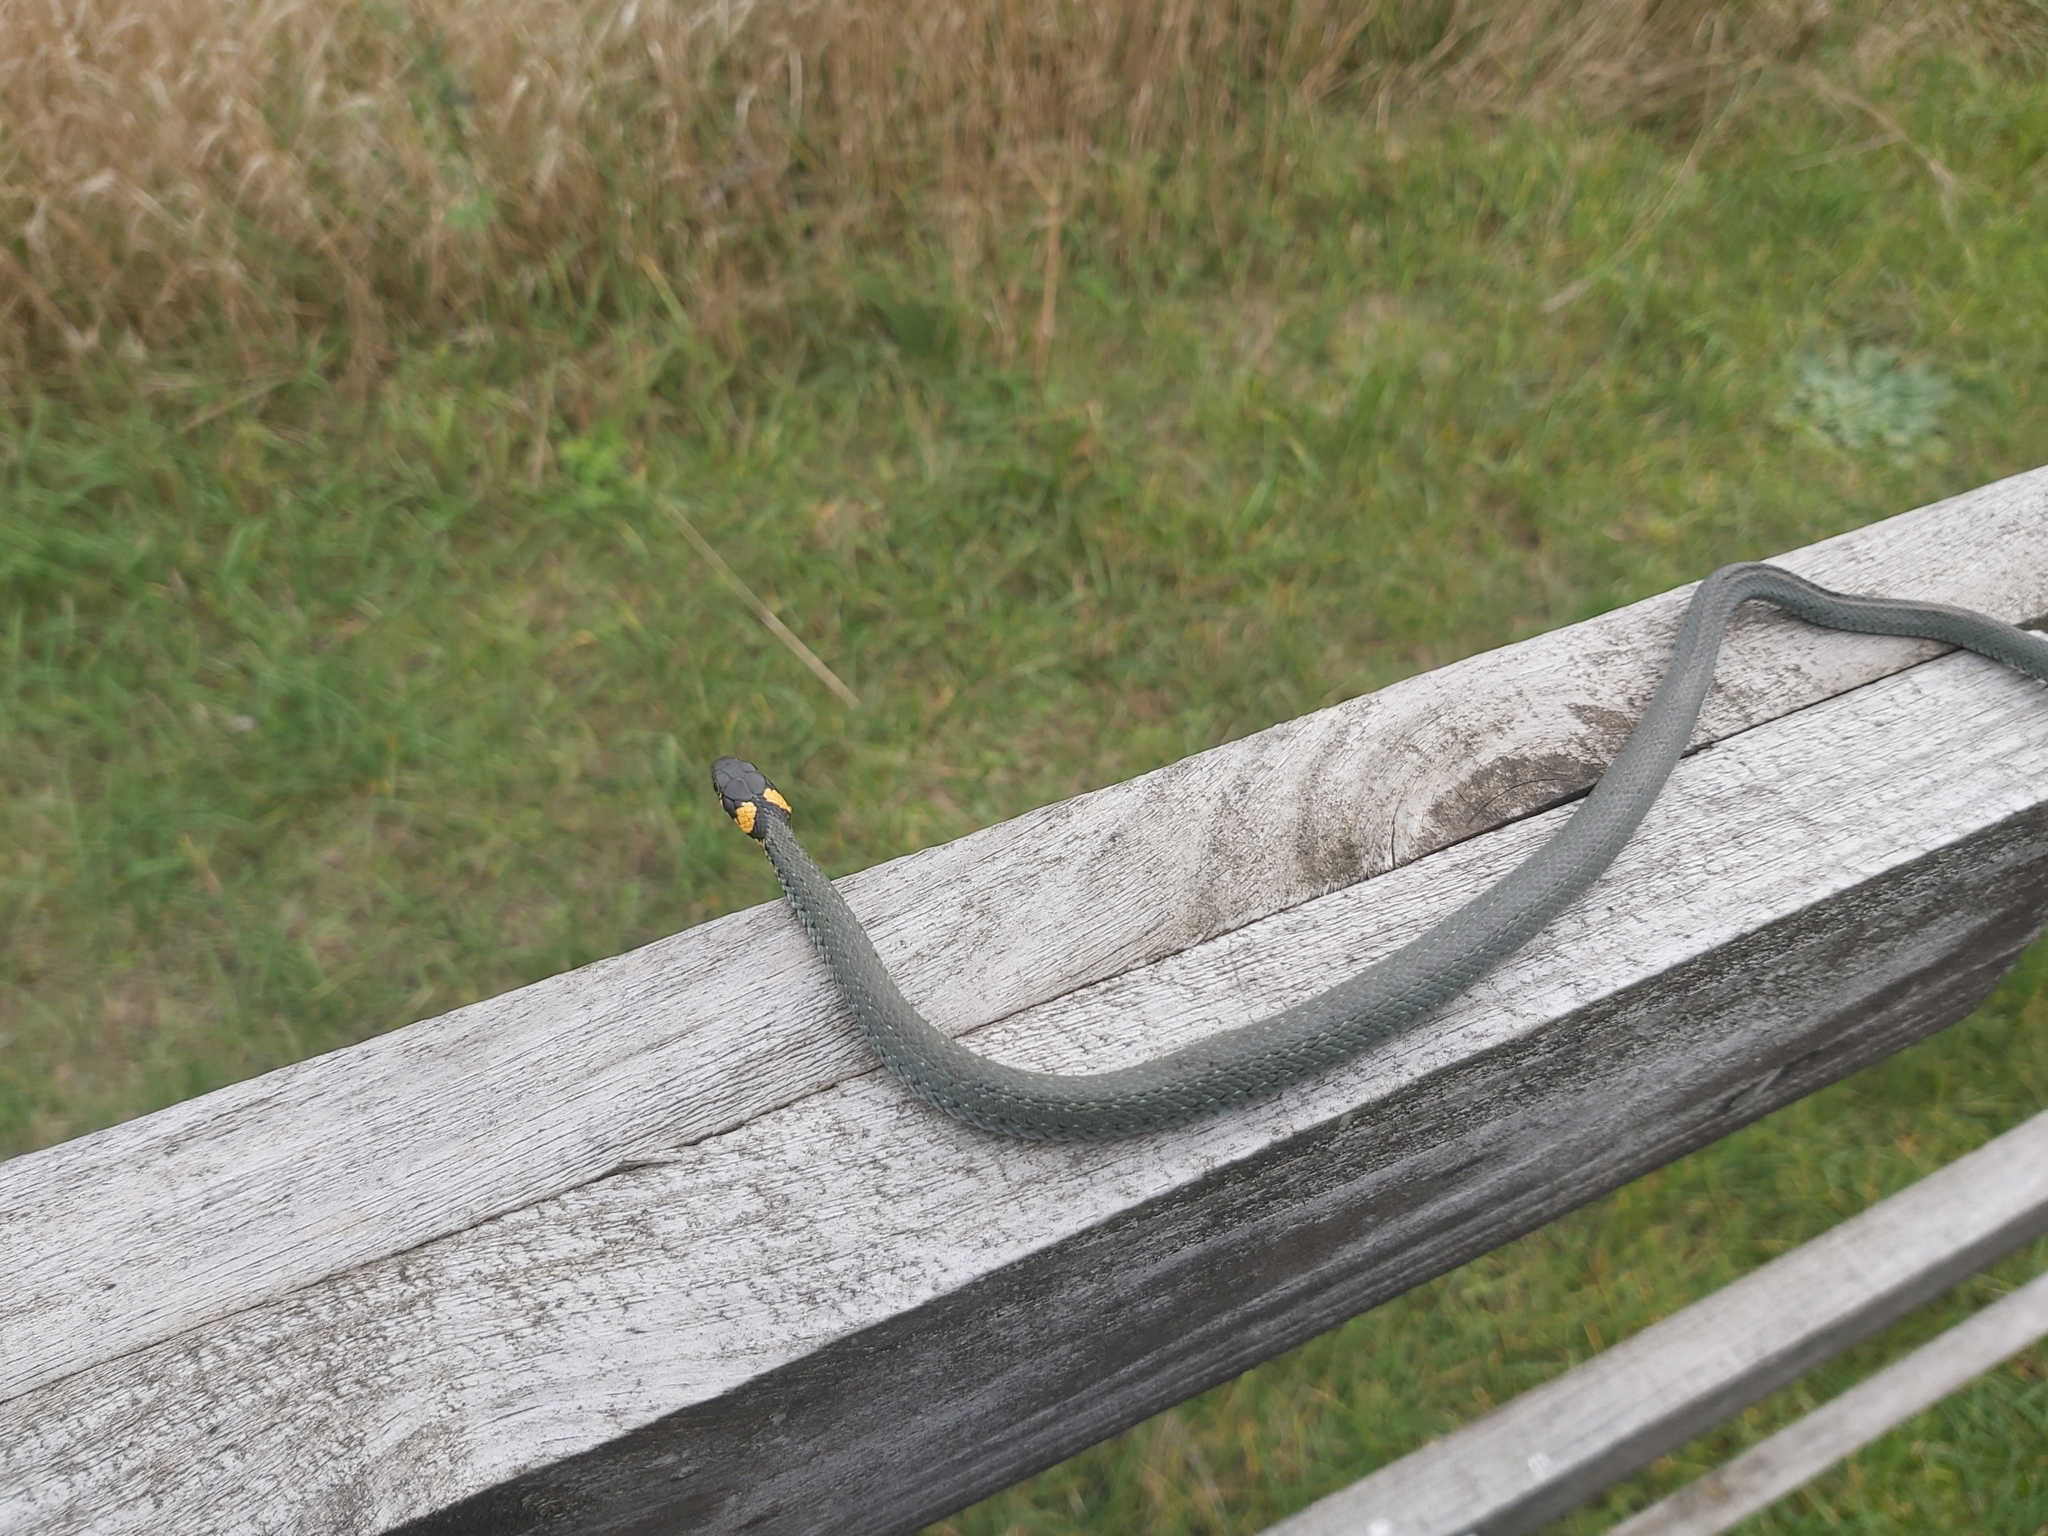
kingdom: Animalia
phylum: Chordata
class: Squamata
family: Colubridae
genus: Natrix
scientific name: Natrix natrix
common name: Grass snake
